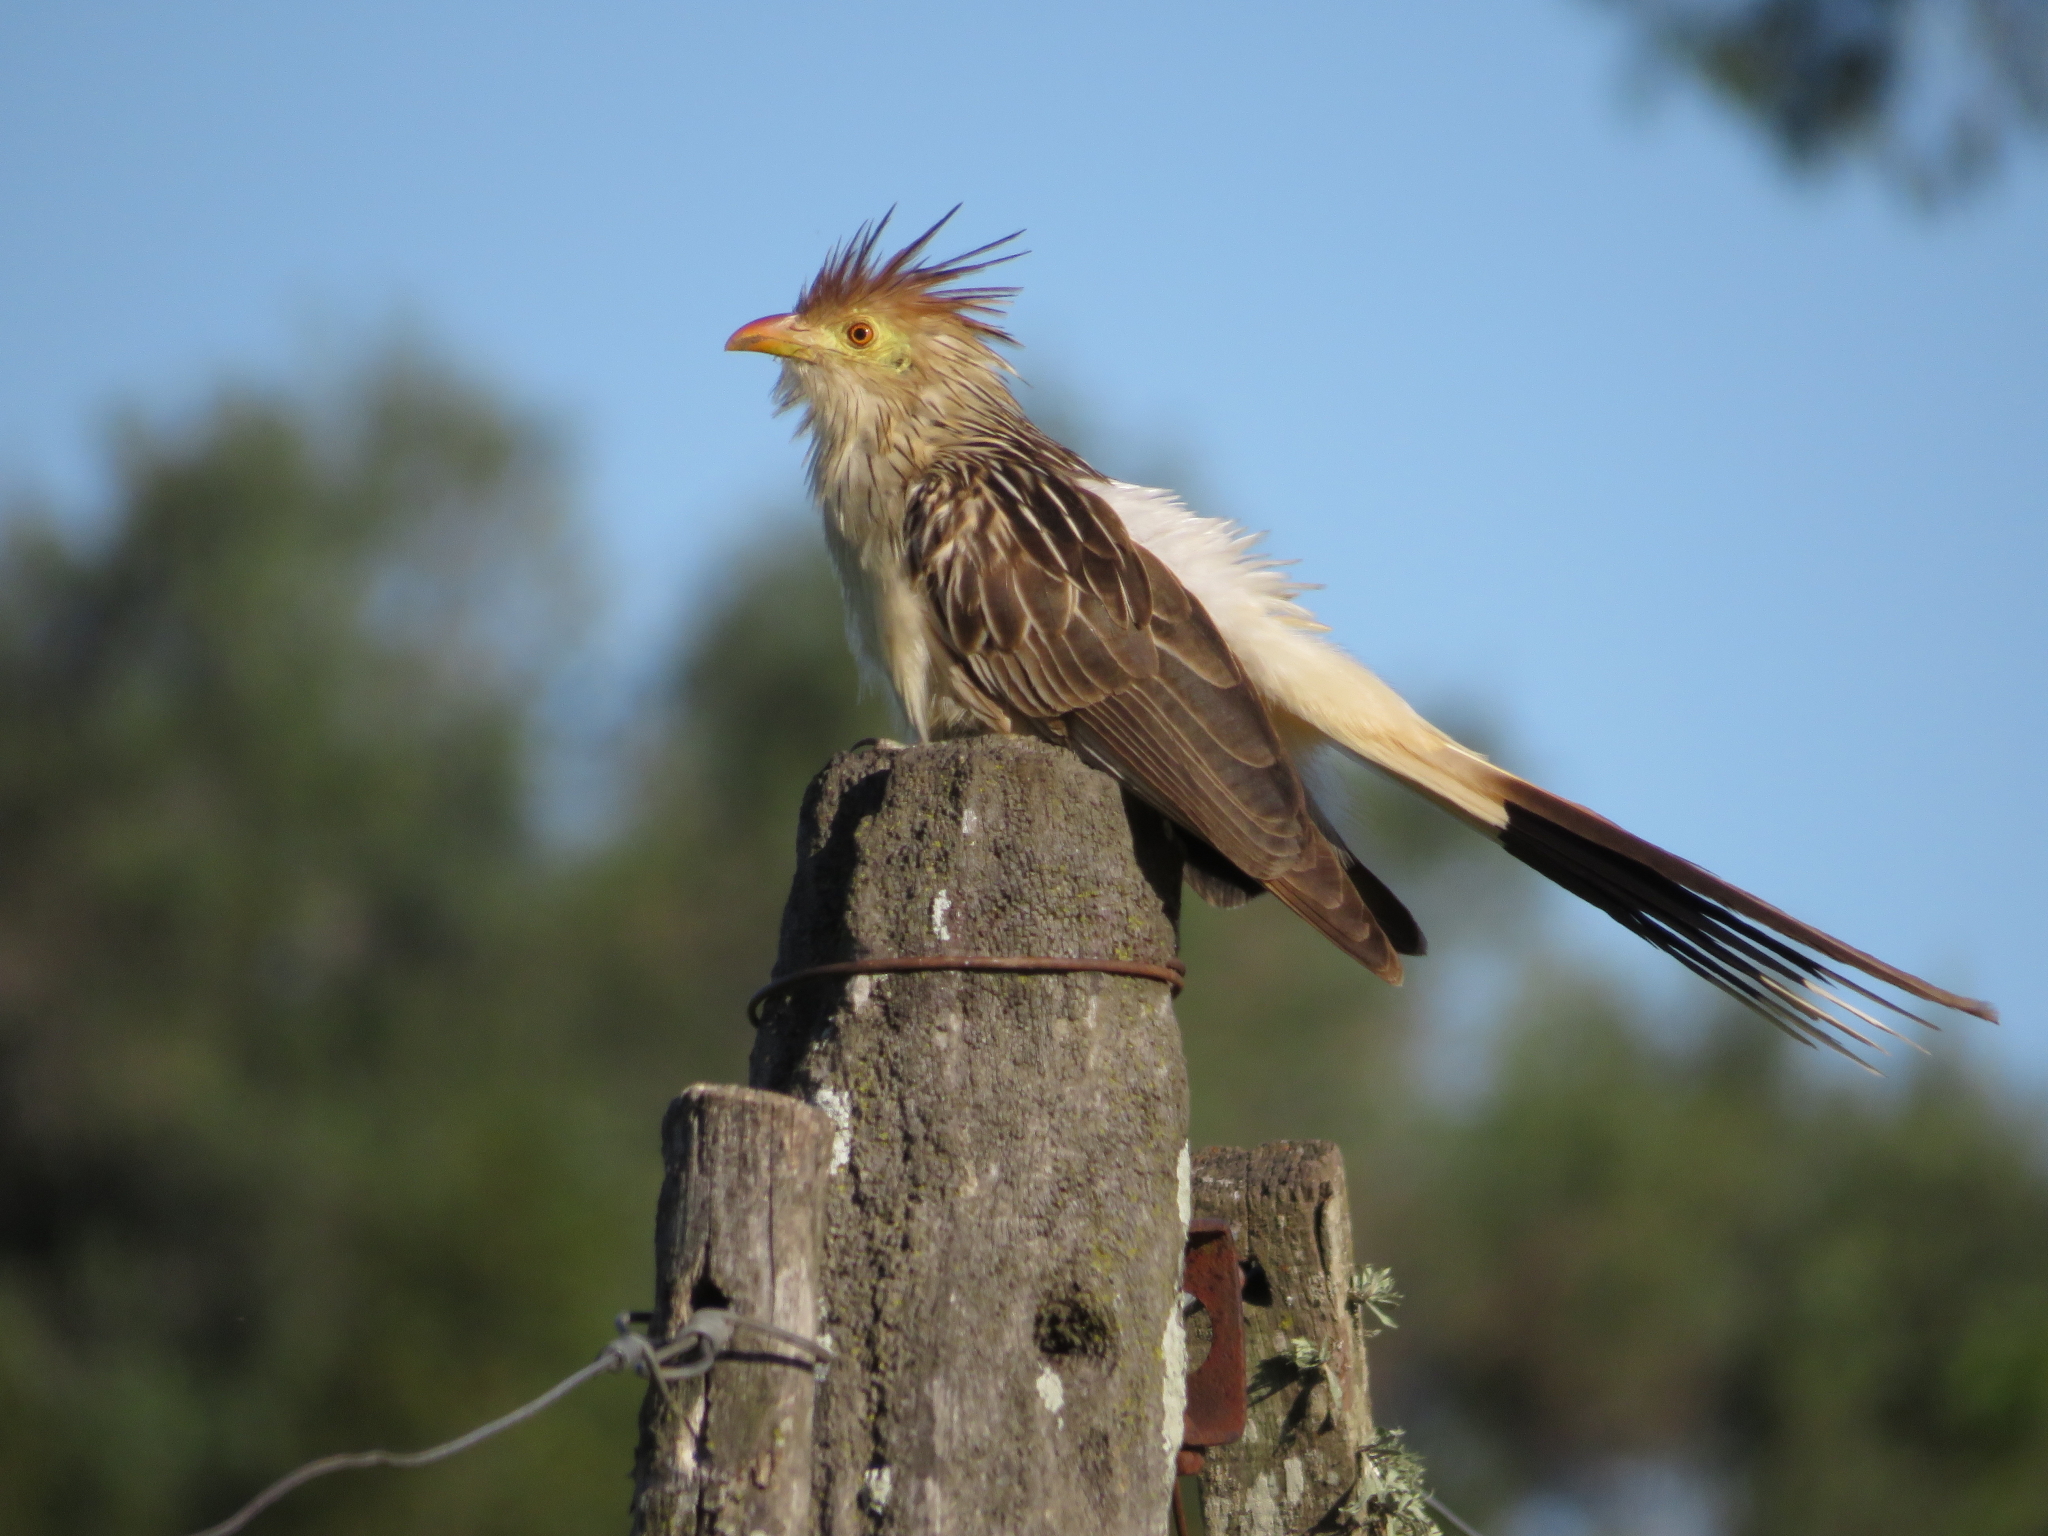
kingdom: Animalia
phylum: Chordata
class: Aves
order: Cuculiformes
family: Cuculidae
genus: Guira
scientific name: Guira guira
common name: Guira cuckoo
